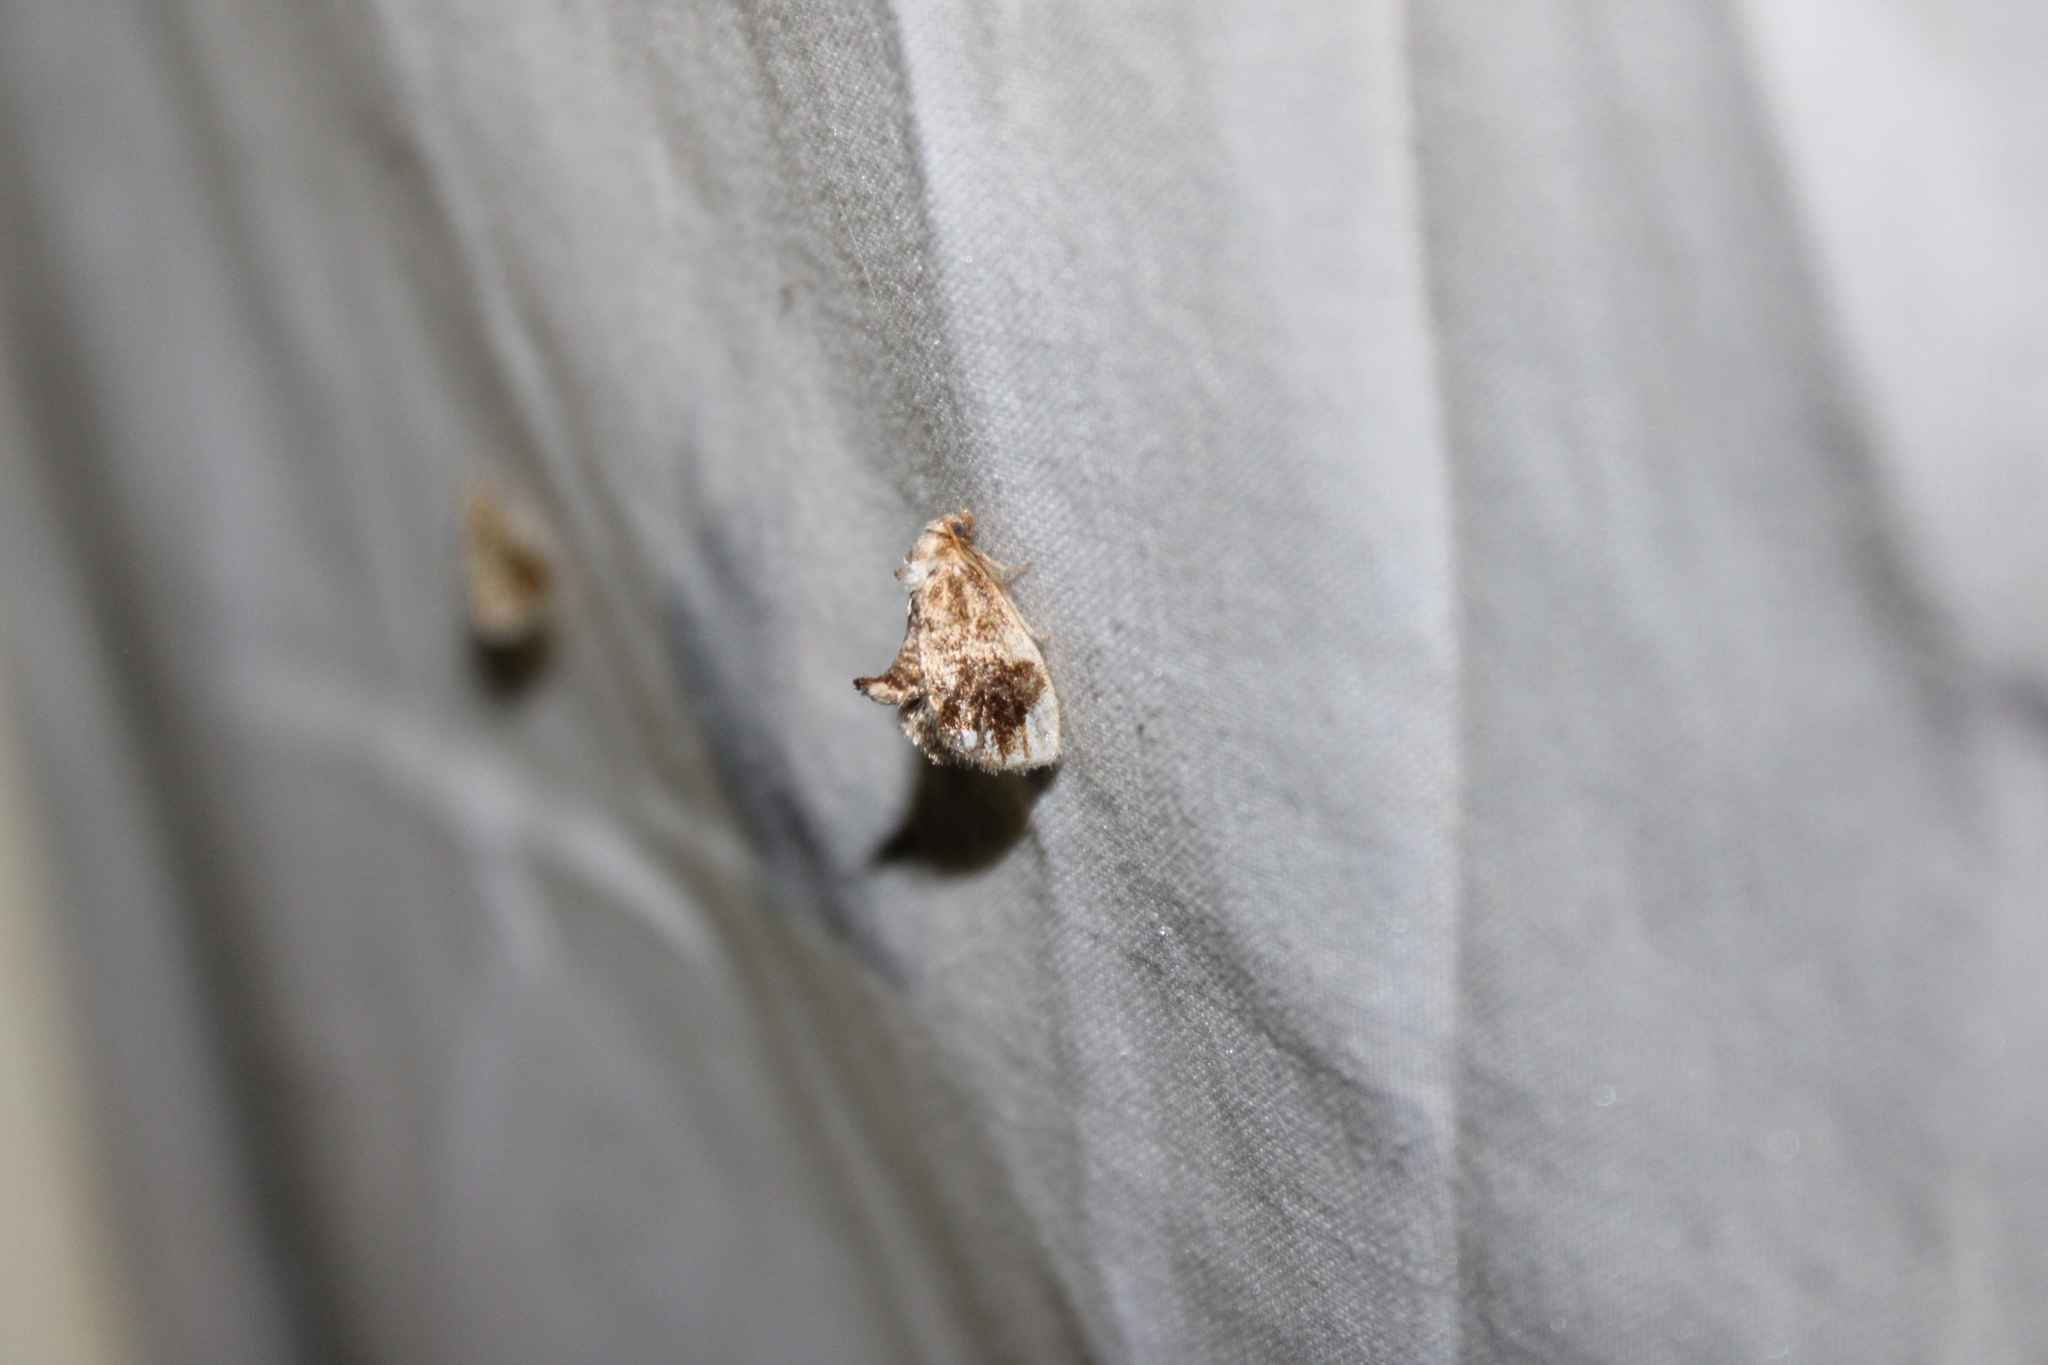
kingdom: Animalia
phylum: Arthropoda
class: Insecta
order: Lepidoptera
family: Limacodidae
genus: Packardia
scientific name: Packardia geminata
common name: Jeweled tailed slug moth
